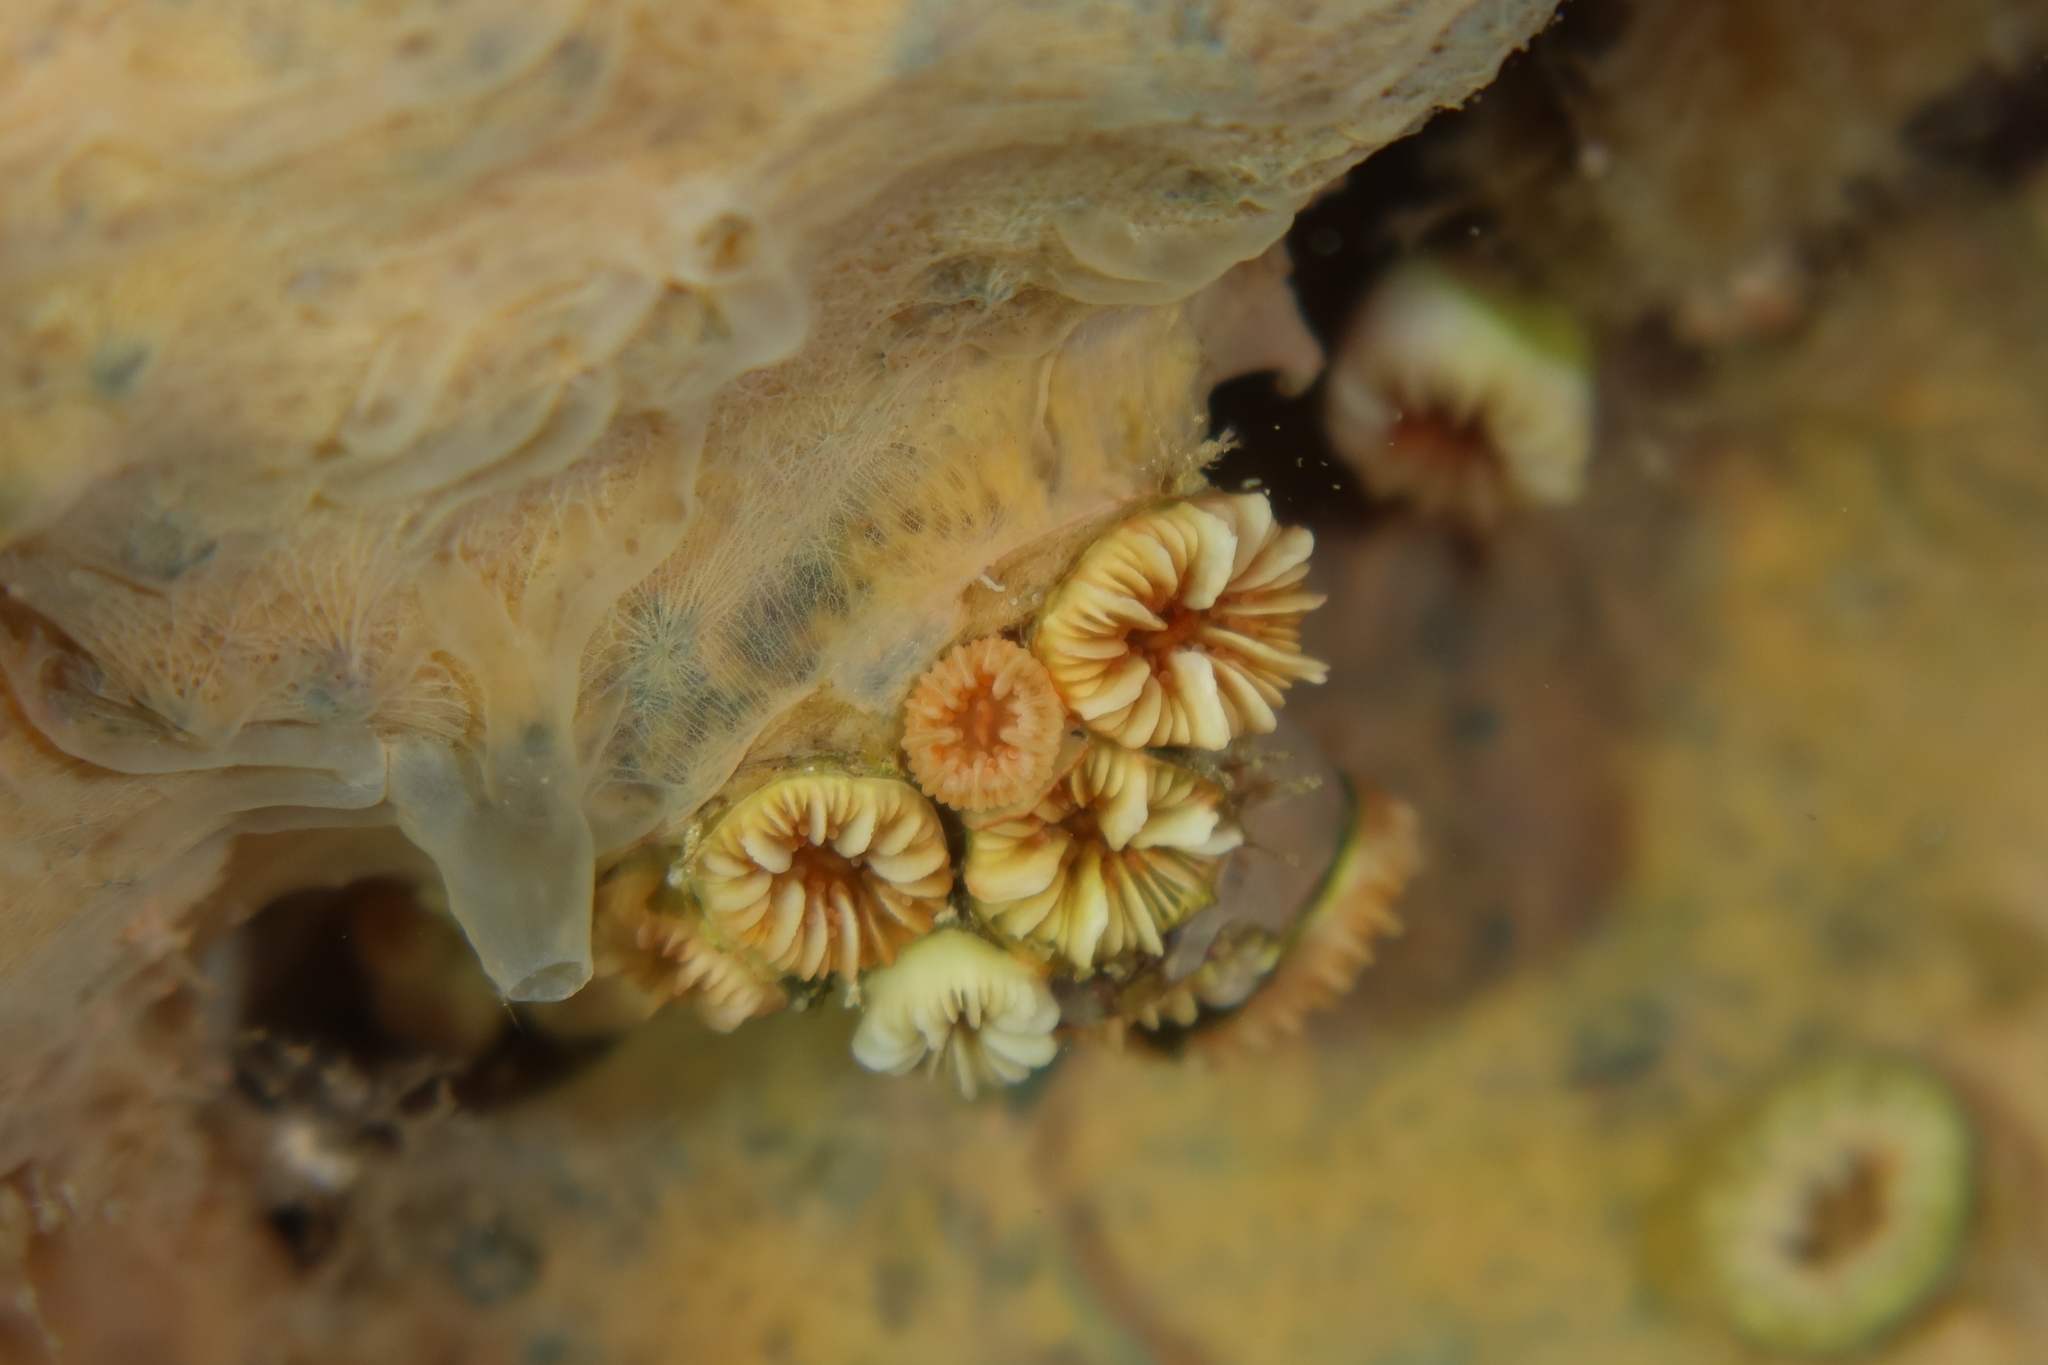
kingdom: Animalia
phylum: Cnidaria
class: Anthozoa
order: Scleractinia
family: Caryophylliidae
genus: Caryophyllia
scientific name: Caryophyllia inornata
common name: Circular cupcoral
